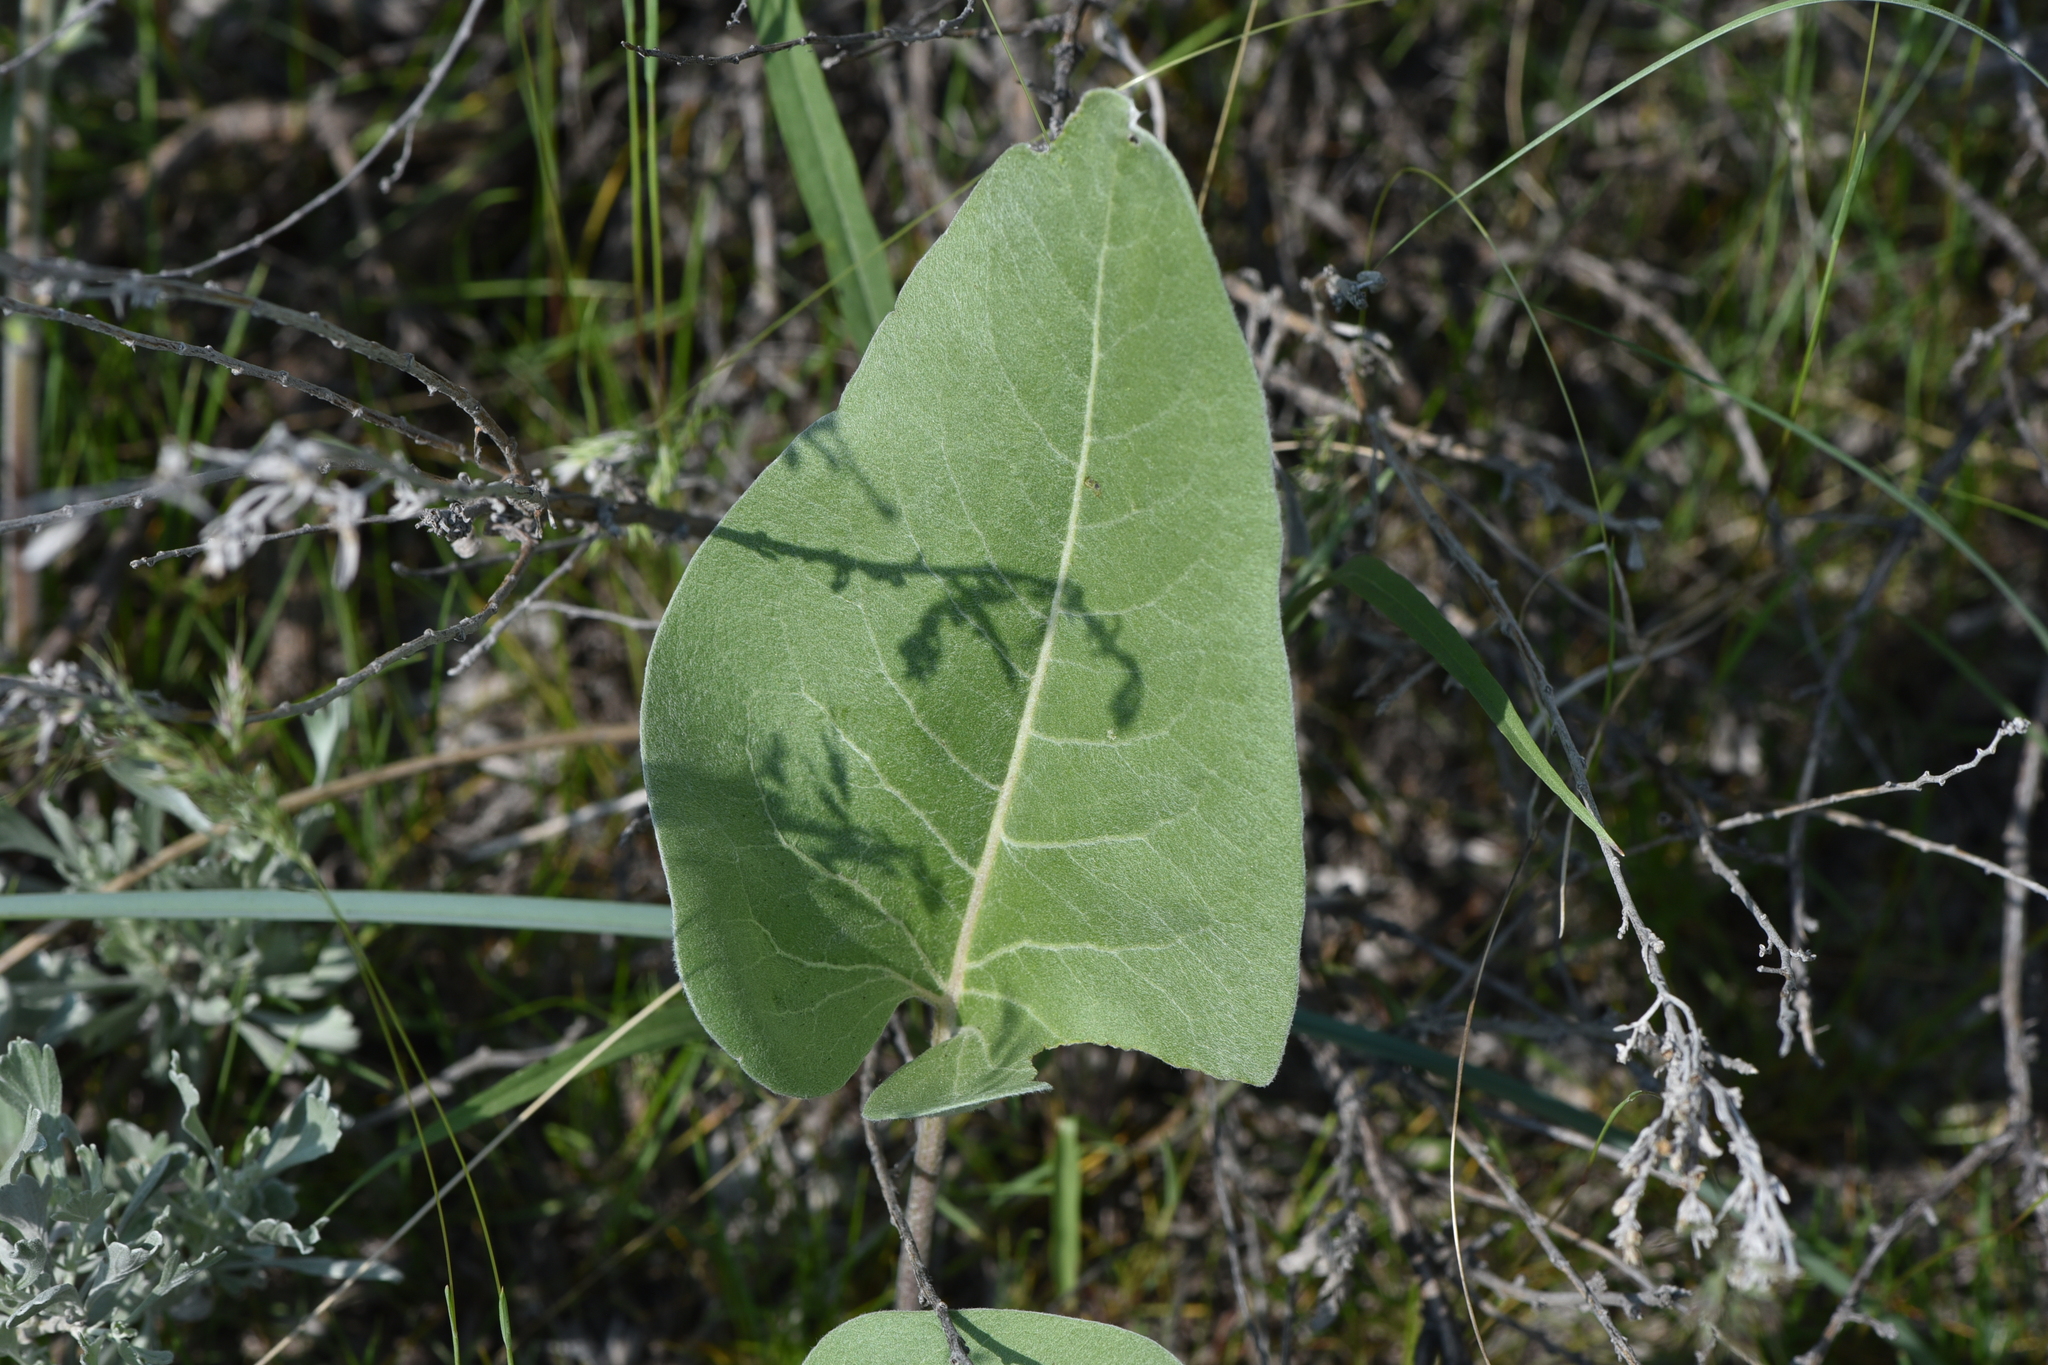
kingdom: Plantae
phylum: Tracheophyta
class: Magnoliopsida
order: Asterales
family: Asteraceae
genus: Wyethia
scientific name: Wyethia sagittata
